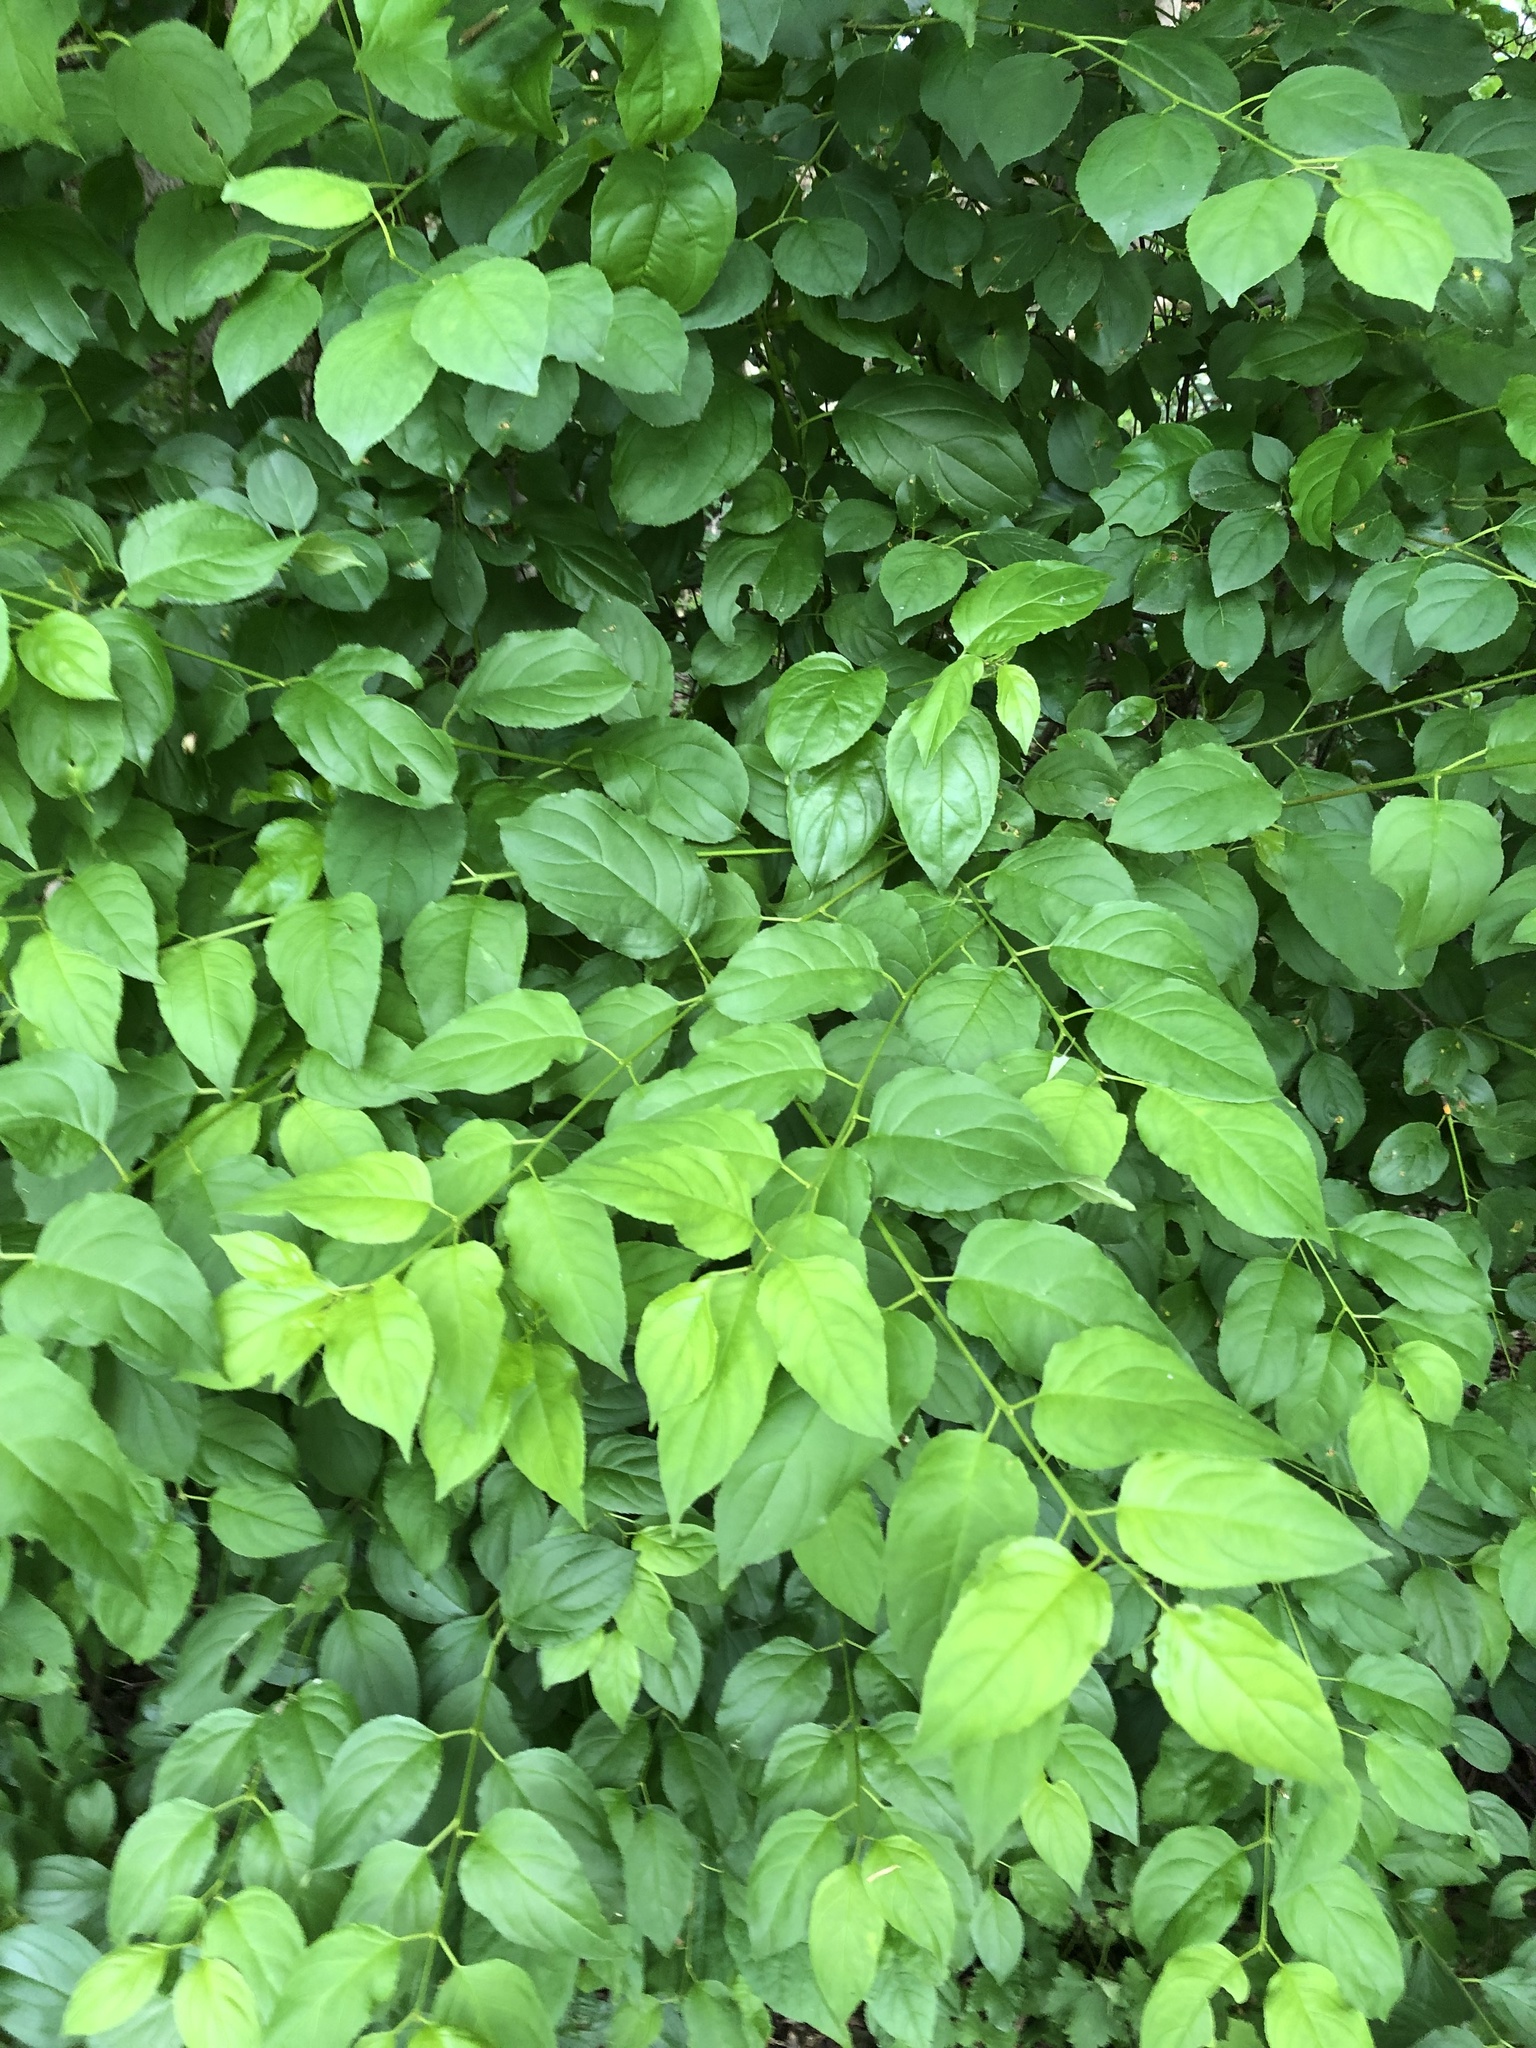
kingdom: Plantae
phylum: Tracheophyta
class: Magnoliopsida
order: Rosales
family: Rhamnaceae
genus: Rhamnus
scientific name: Rhamnus cathartica
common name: Common buckthorn
